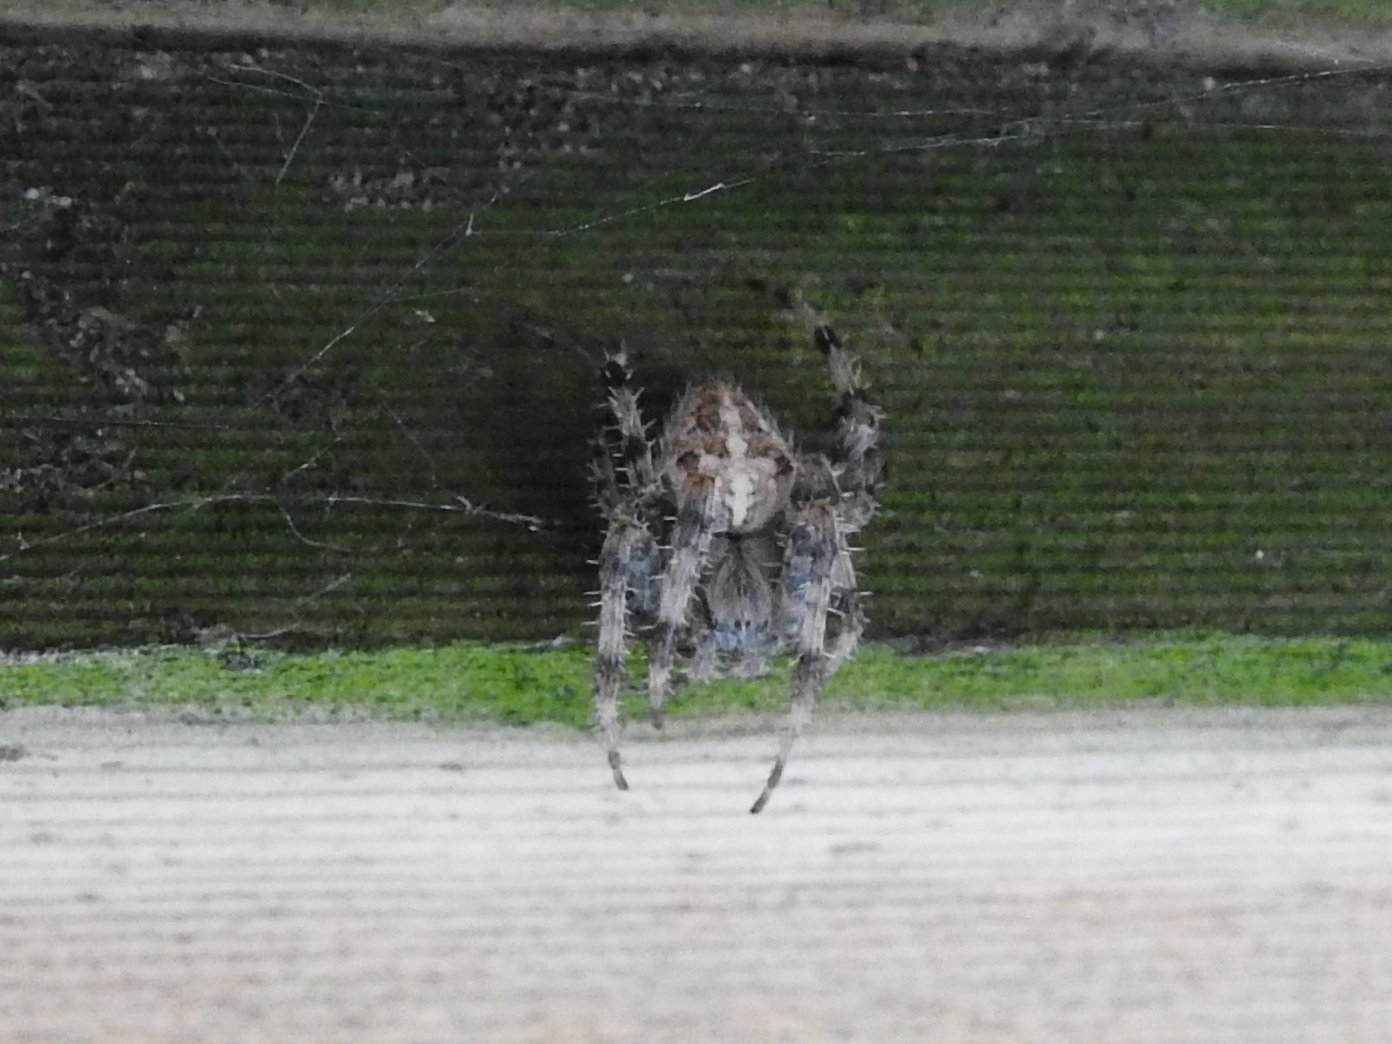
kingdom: Animalia
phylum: Arthropoda
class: Arachnida
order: Araneae
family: Araneidae
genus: Araneus
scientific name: Araneus diadematus
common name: Cross orbweaver
